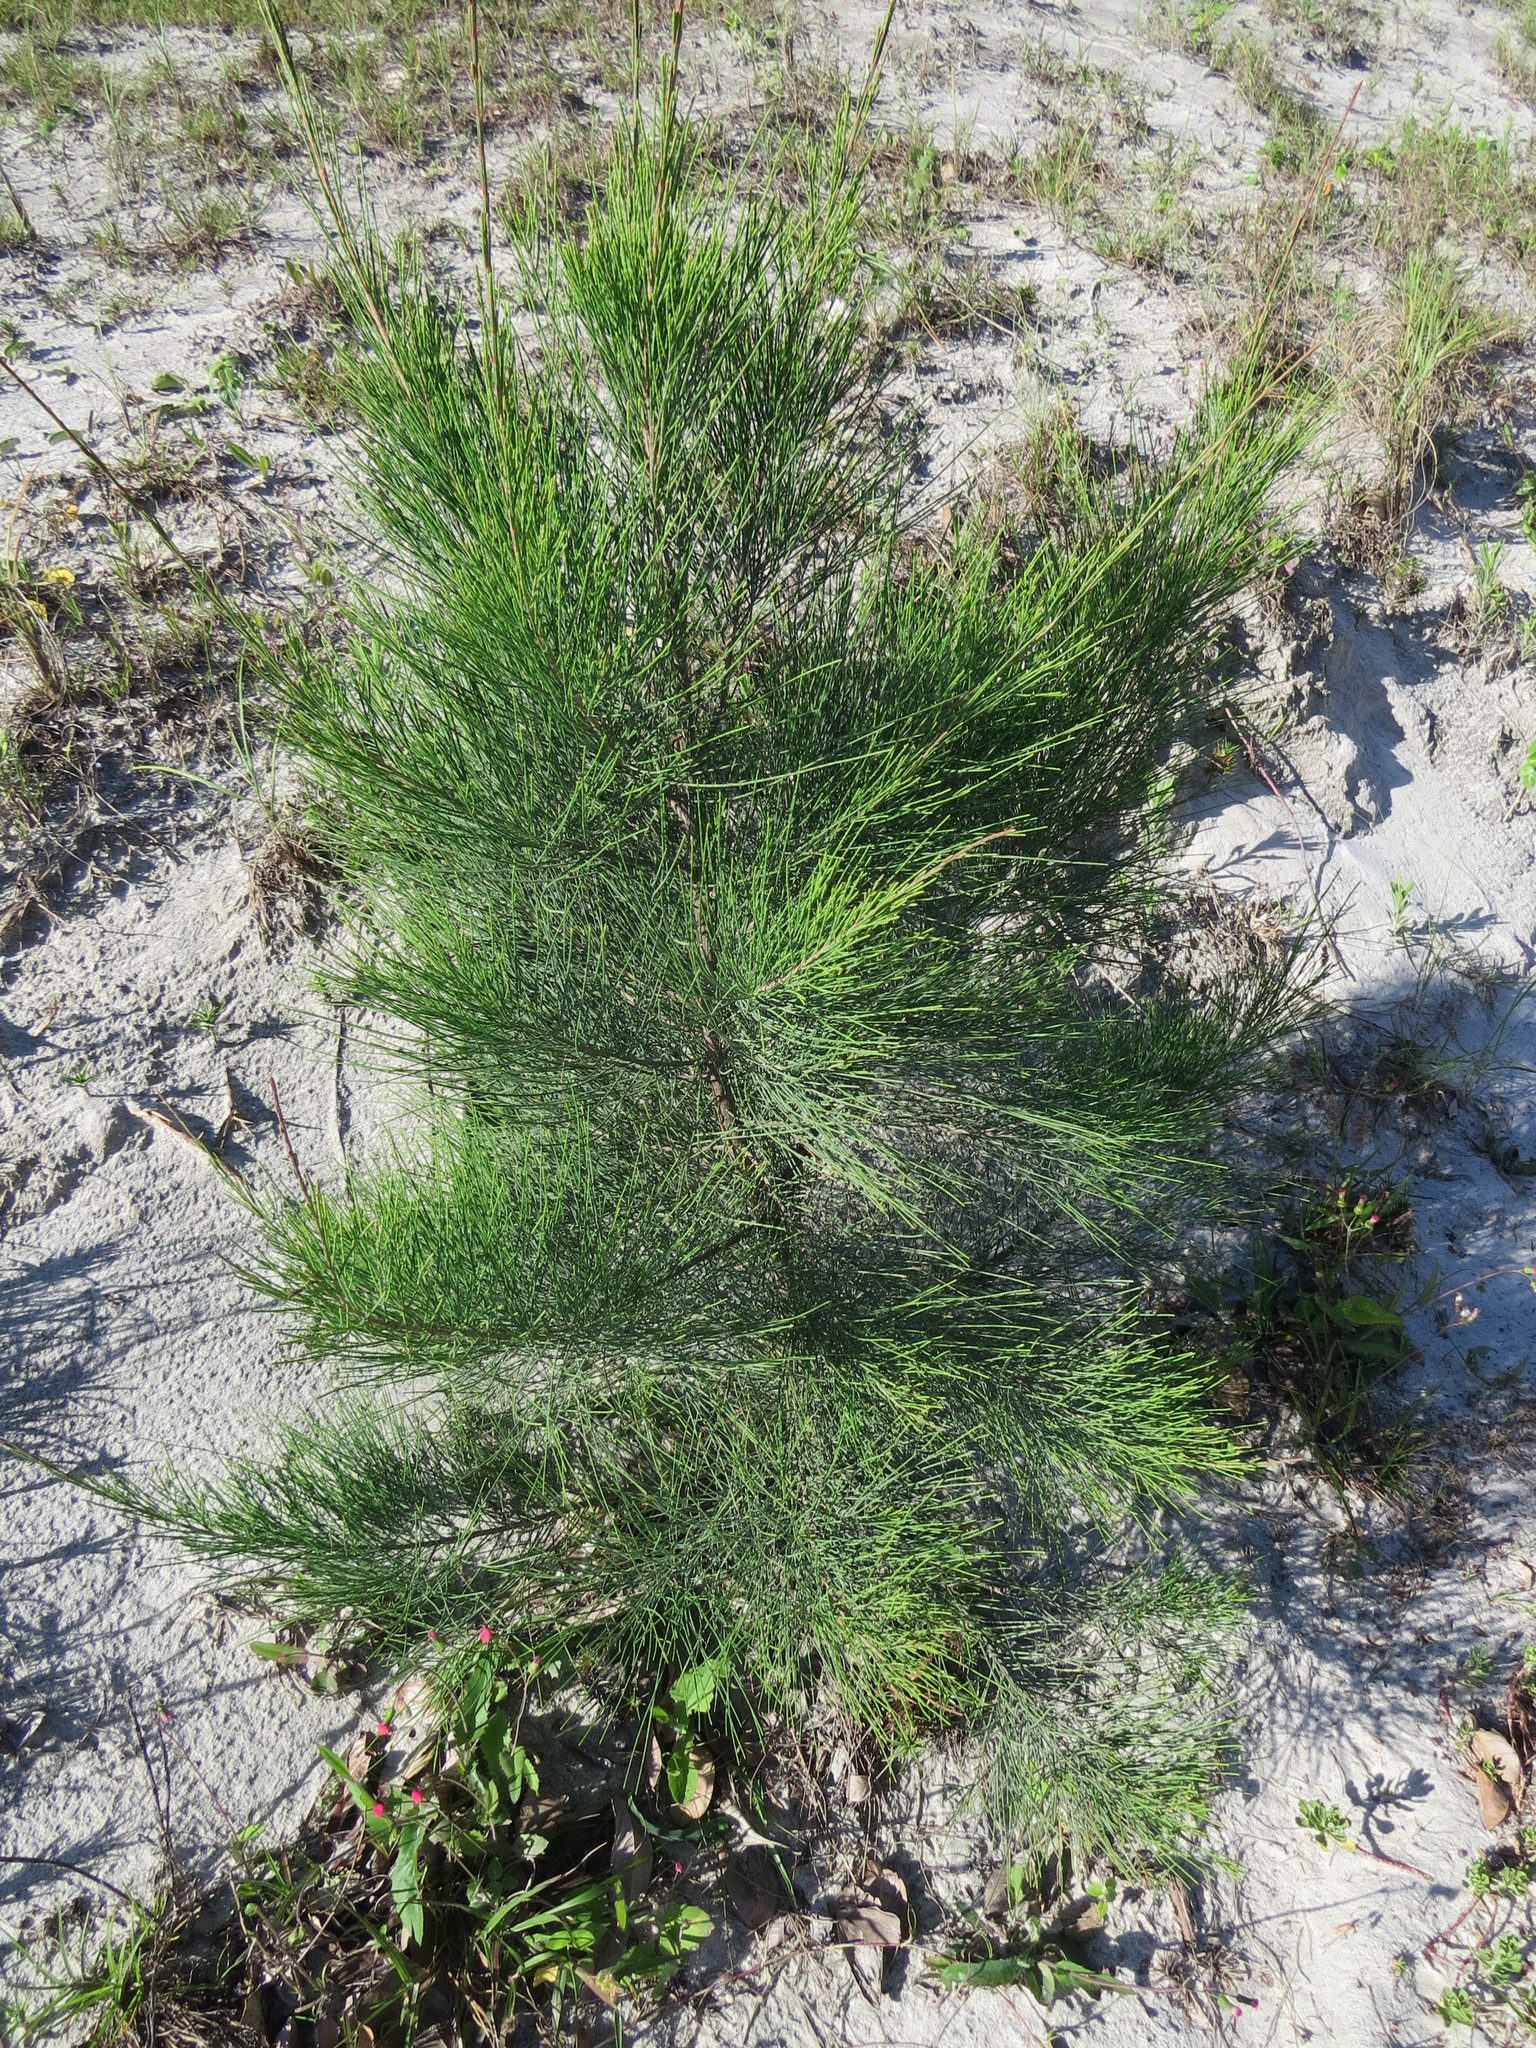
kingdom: Plantae
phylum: Tracheophyta
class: Magnoliopsida
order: Fagales
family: Casuarinaceae
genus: Casuarina
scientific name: Casuarina equisetifolia
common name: Beach sheoak
